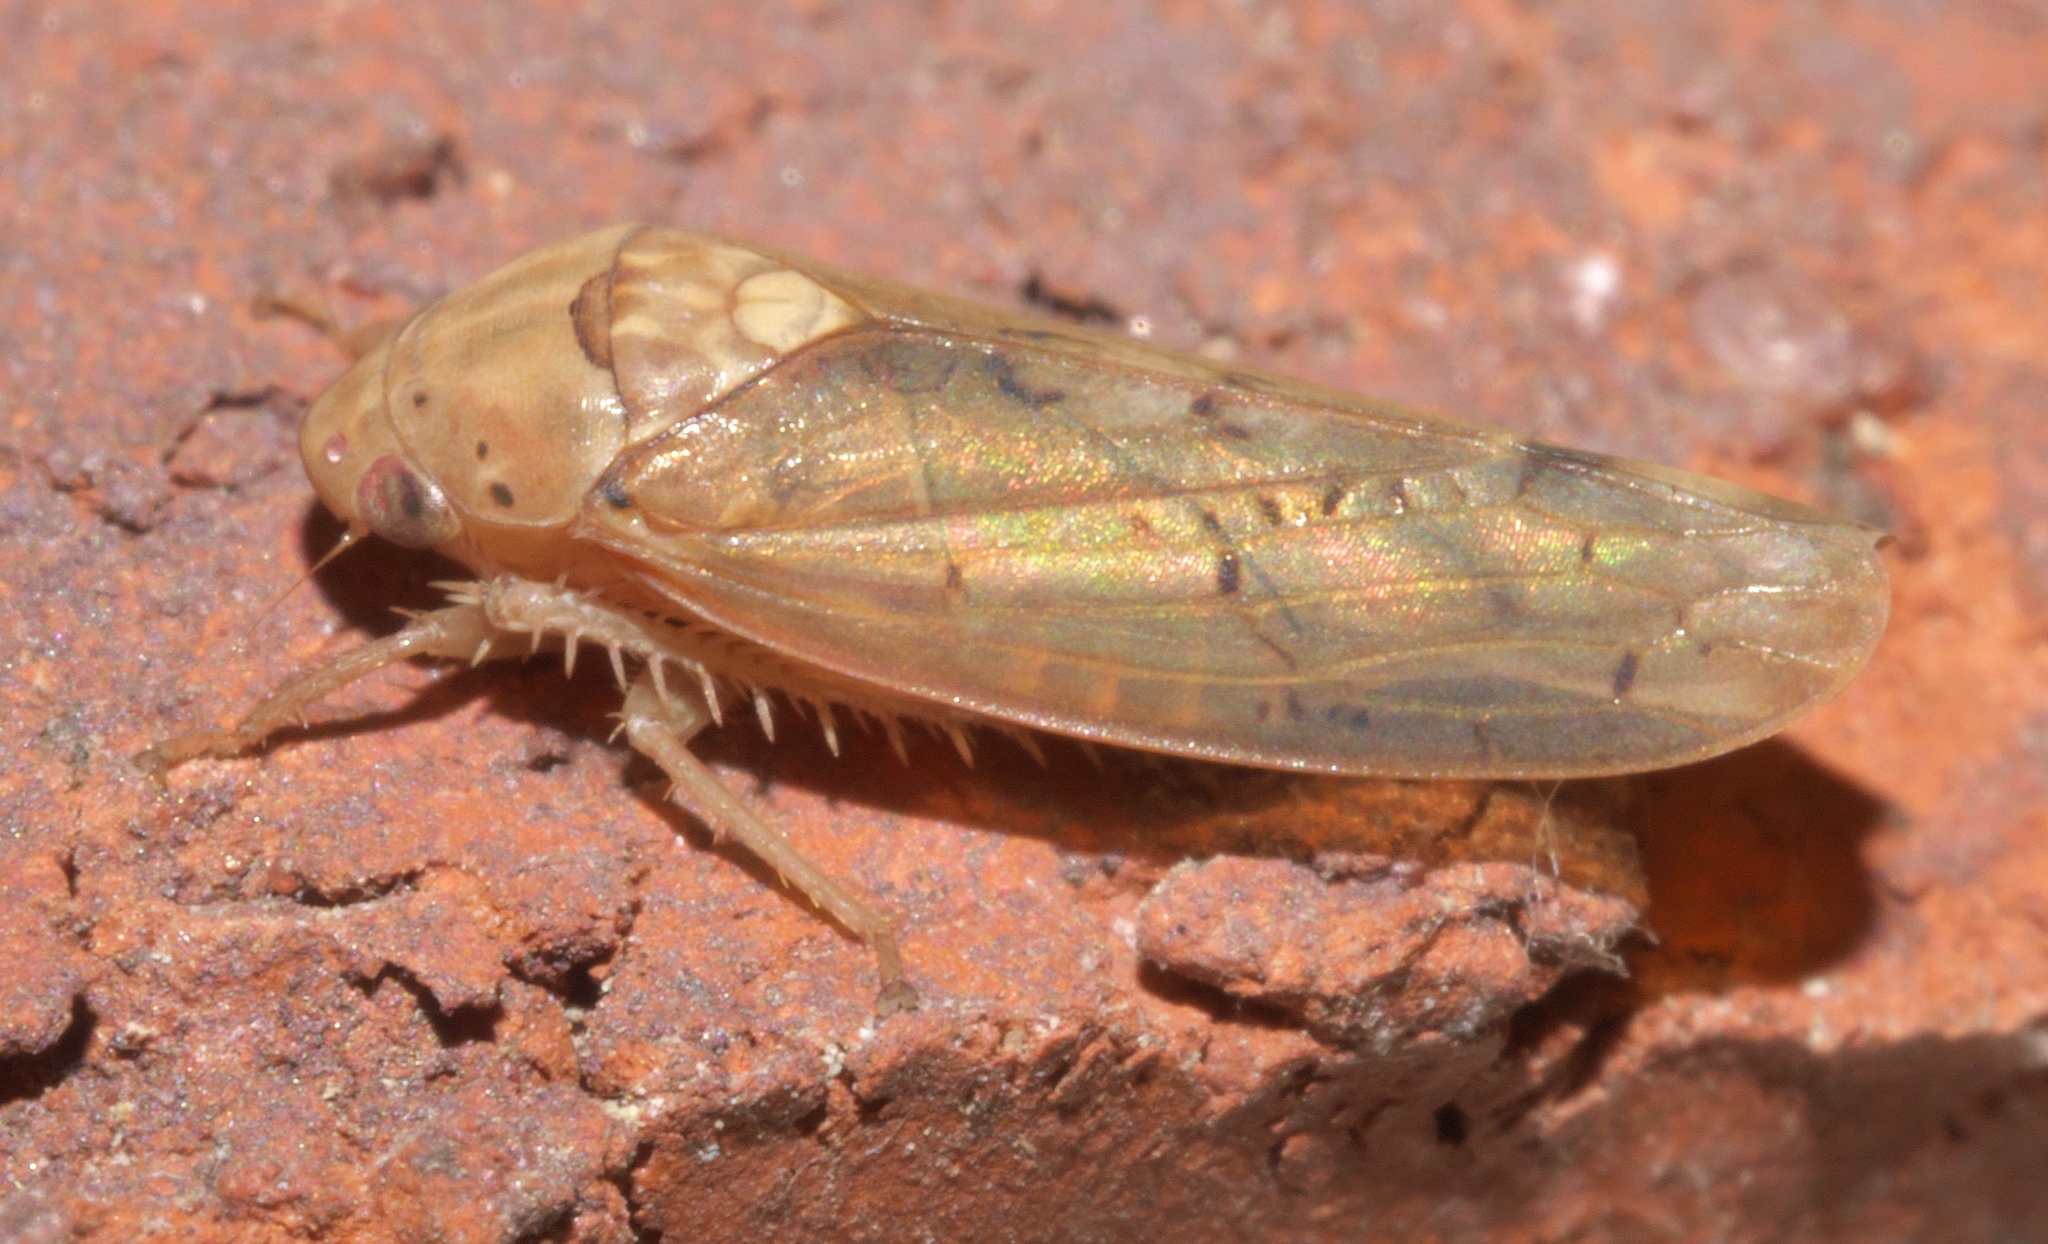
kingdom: Animalia
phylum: Arthropoda
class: Insecta
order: Hemiptera
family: Cicadellidae
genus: Ponana
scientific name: Ponana quadralaba
